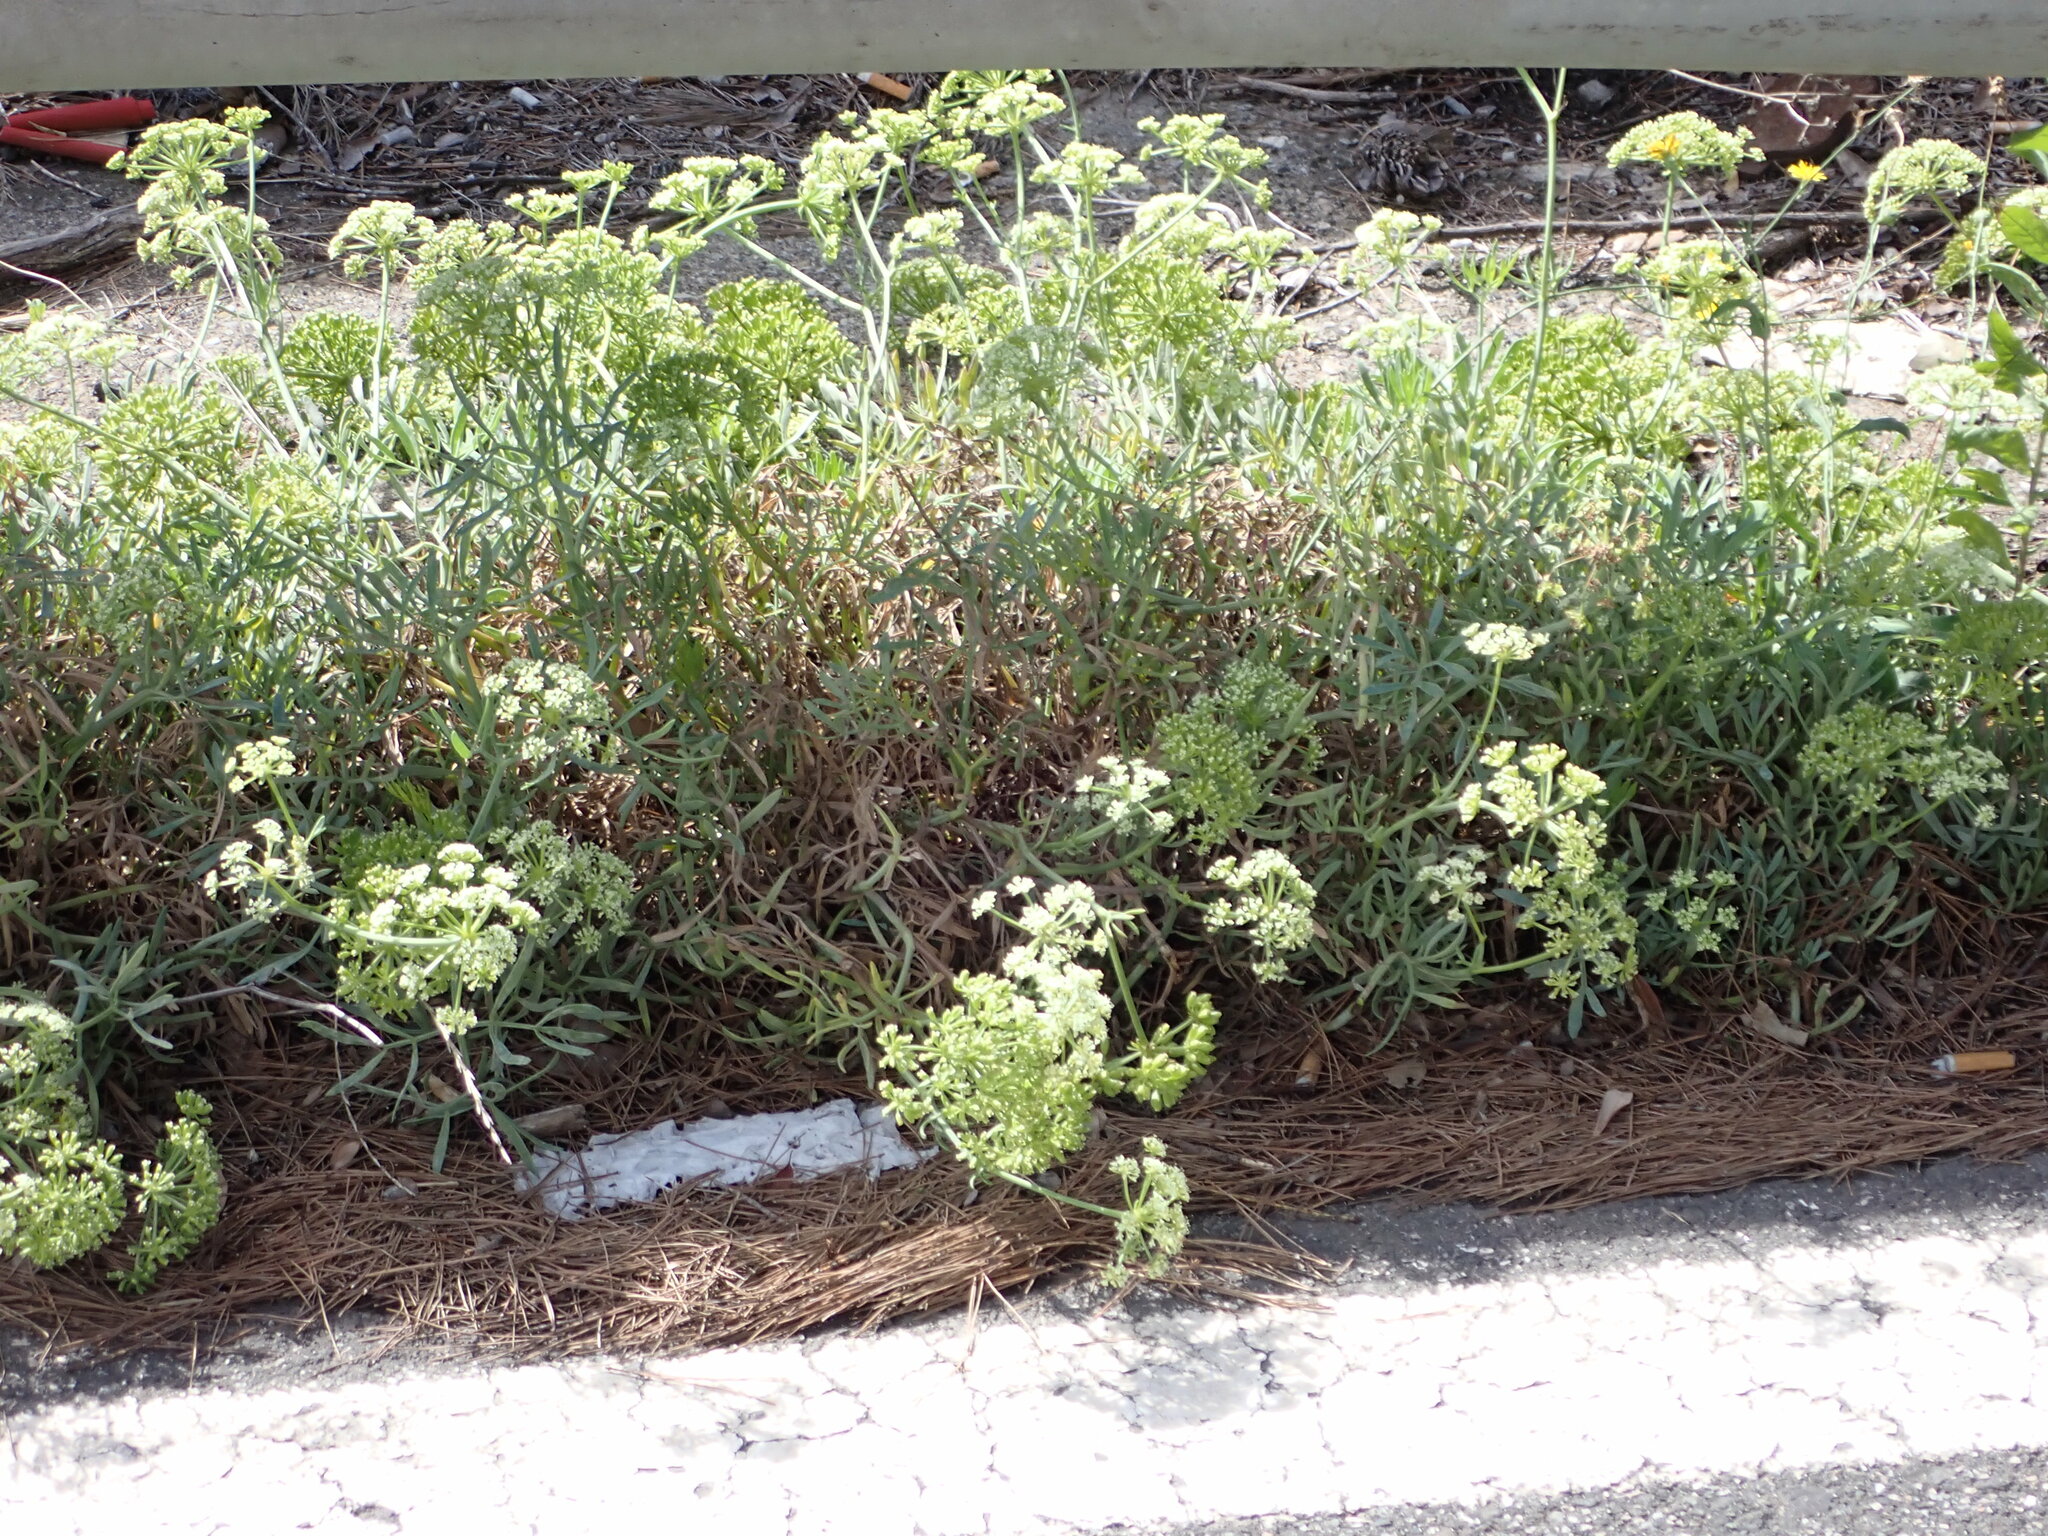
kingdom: Plantae
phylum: Tracheophyta
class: Magnoliopsida
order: Apiales
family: Apiaceae
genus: Crithmum
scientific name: Crithmum maritimum
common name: Rock samphire
